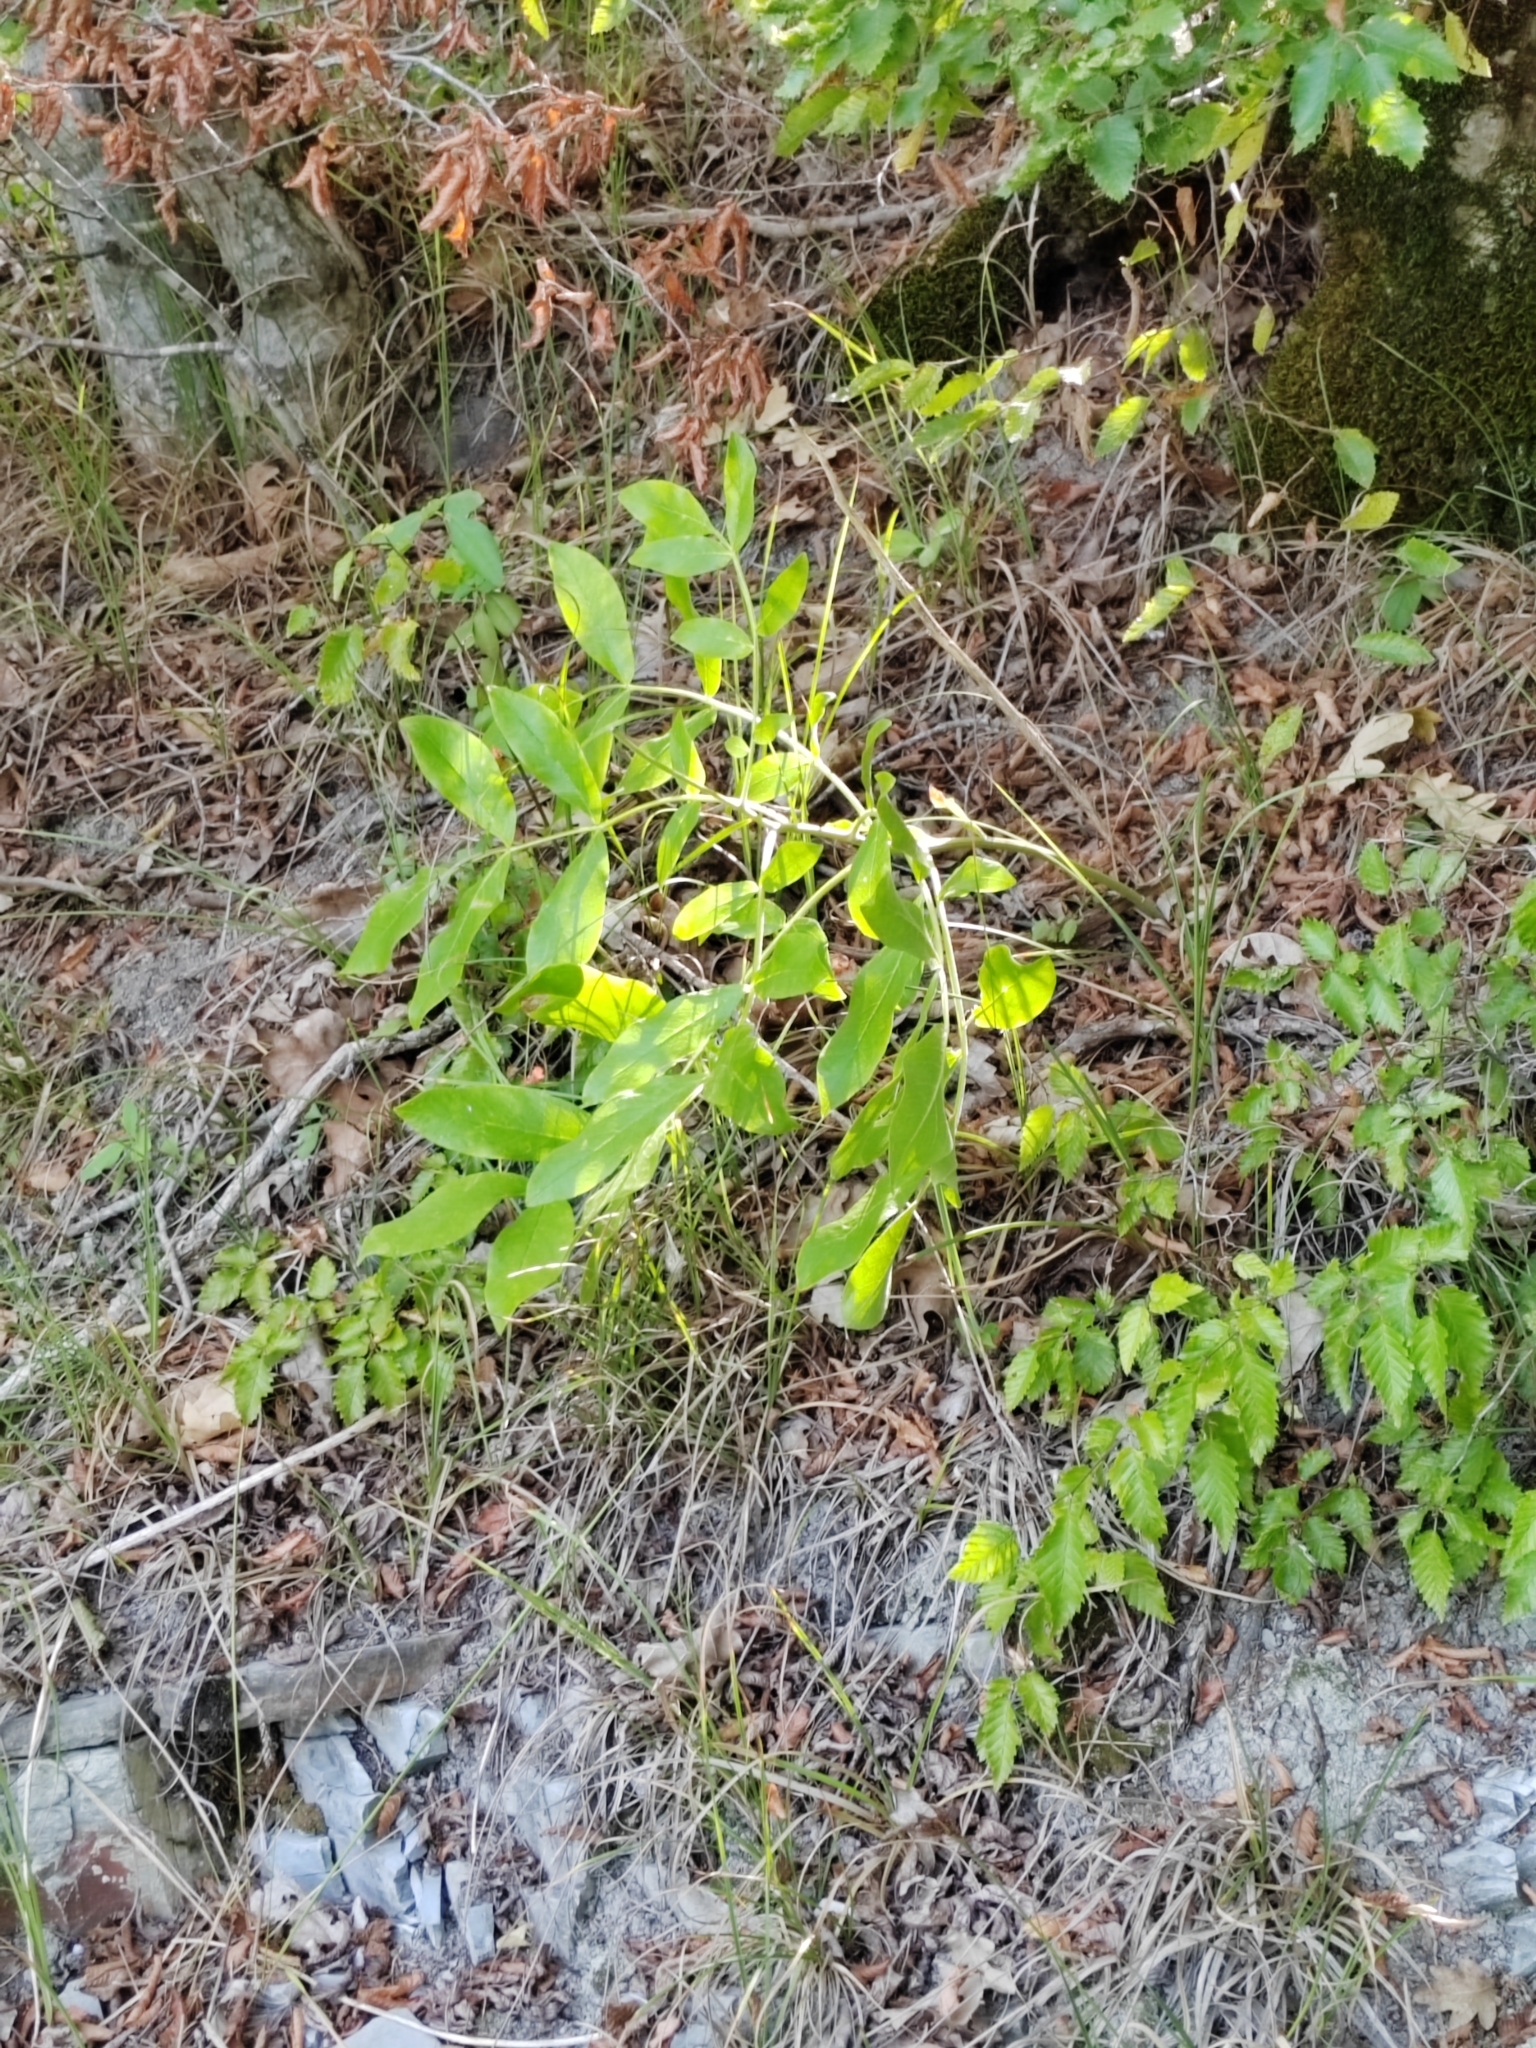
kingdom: Plantae
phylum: Tracheophyta
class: Magnoliopsida
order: Sapindales
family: Rutaceae
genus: Dictamnus
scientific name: Dictamnus albus
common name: Gasplant
